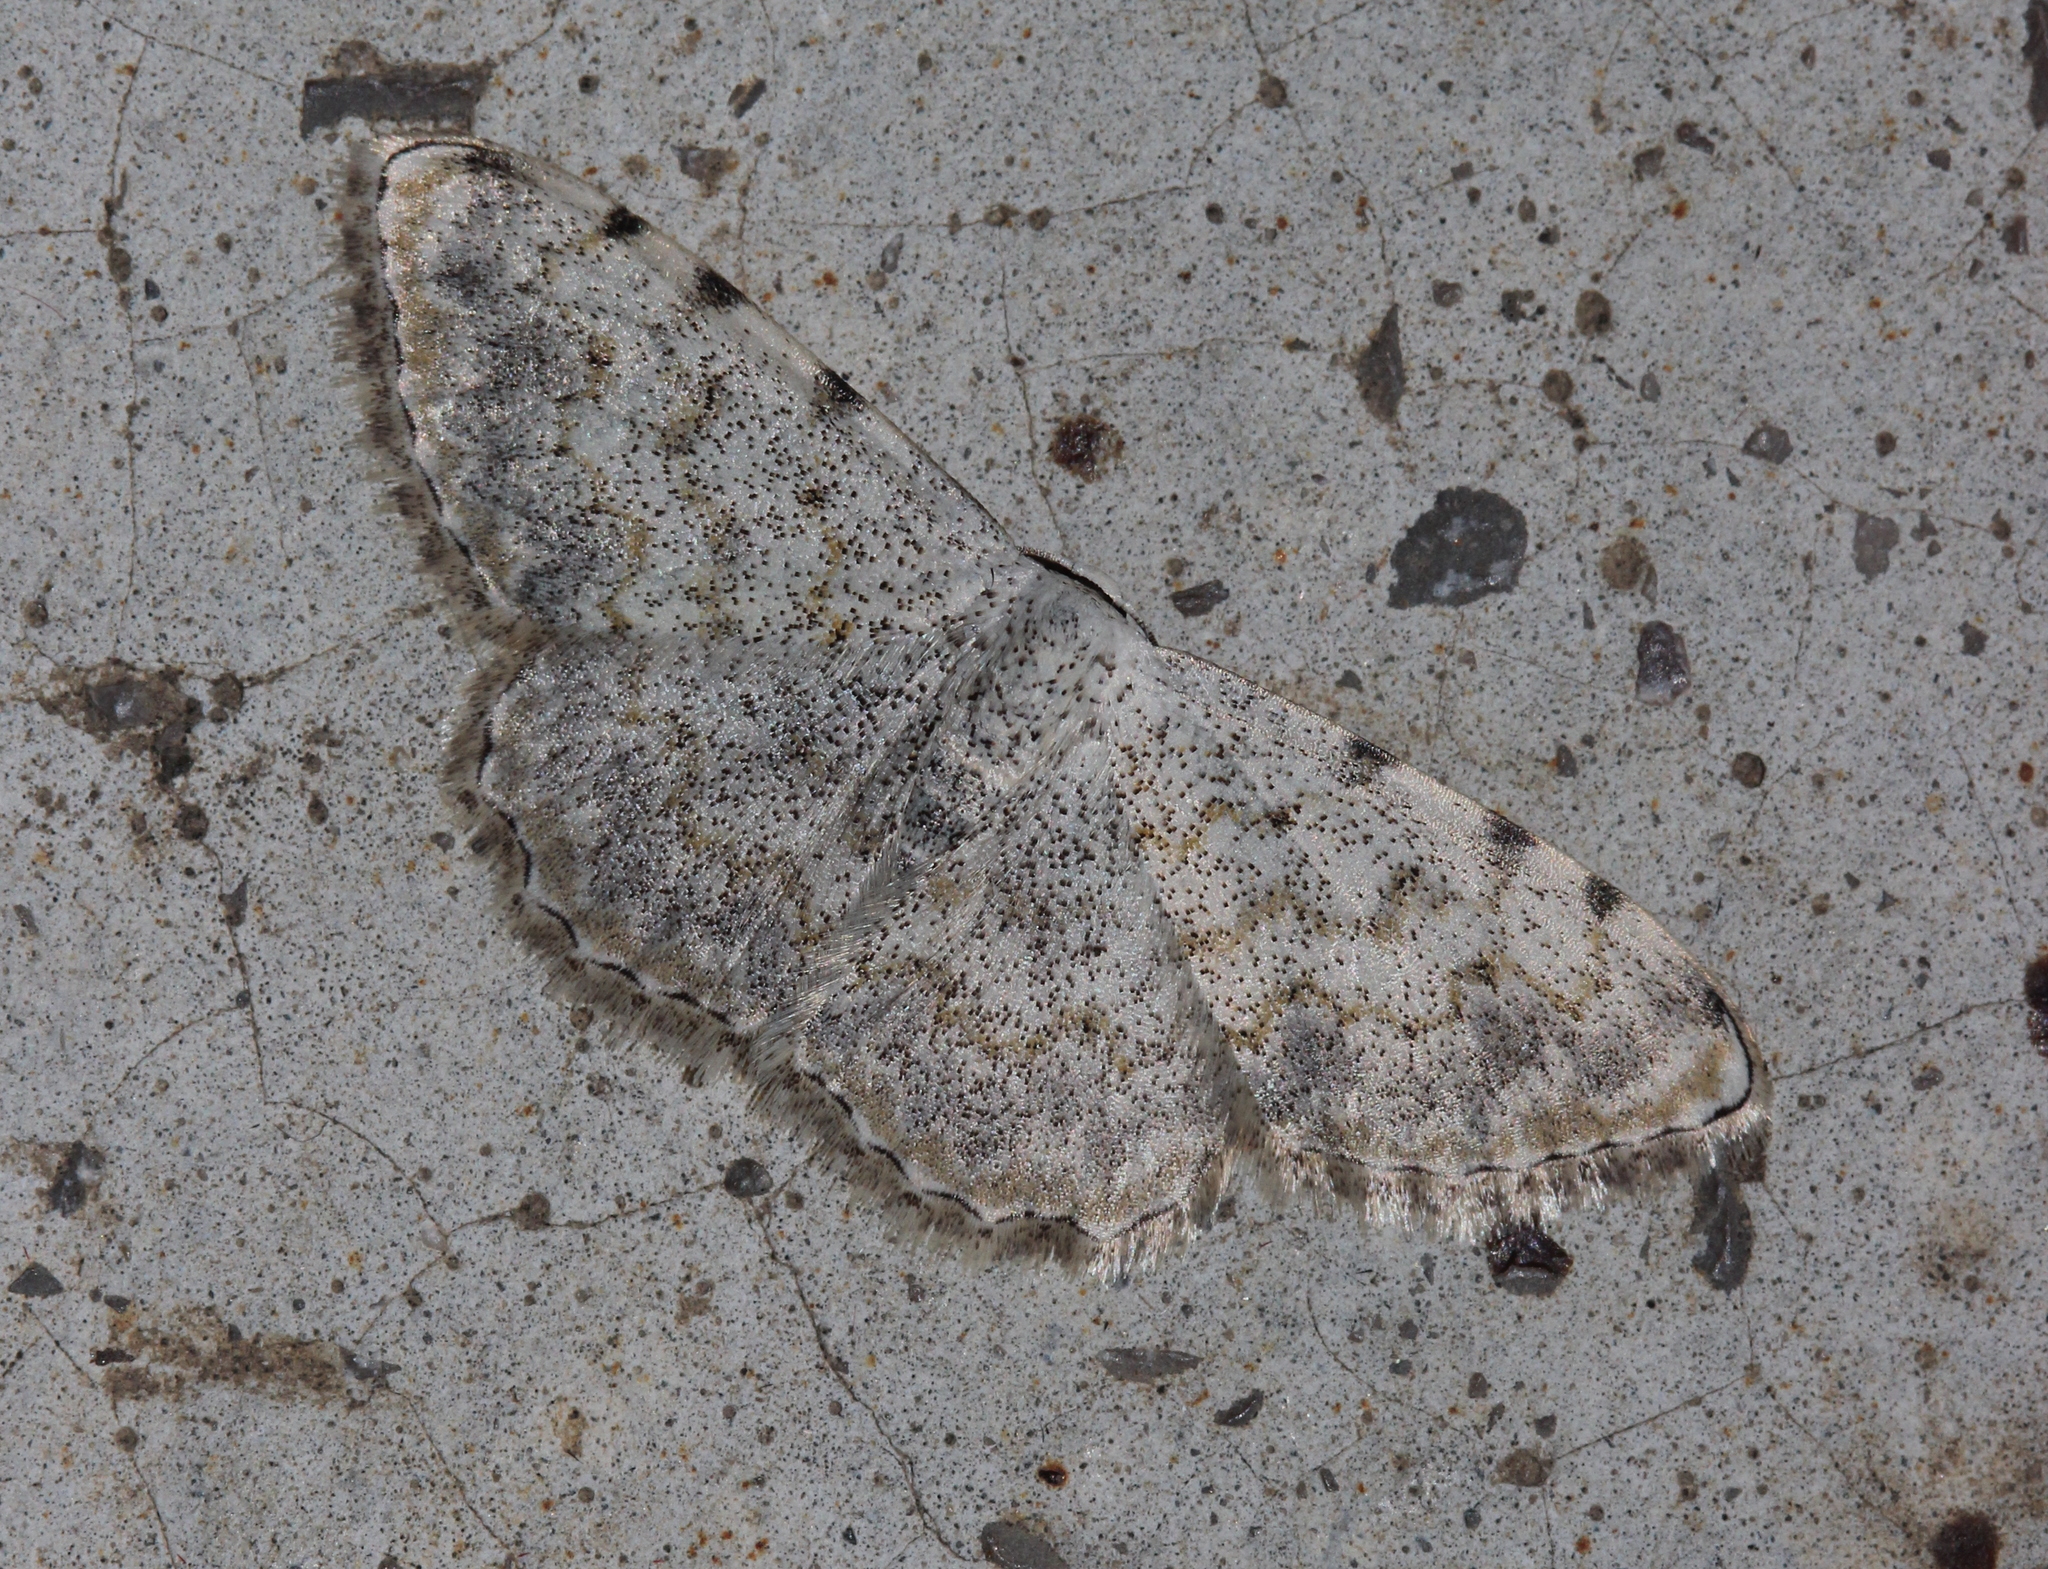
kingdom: Animalia
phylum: Arthropoda
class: Insecta
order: Lepidoptera
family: Geometridae
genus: Scopula
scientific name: Scopula submutata
